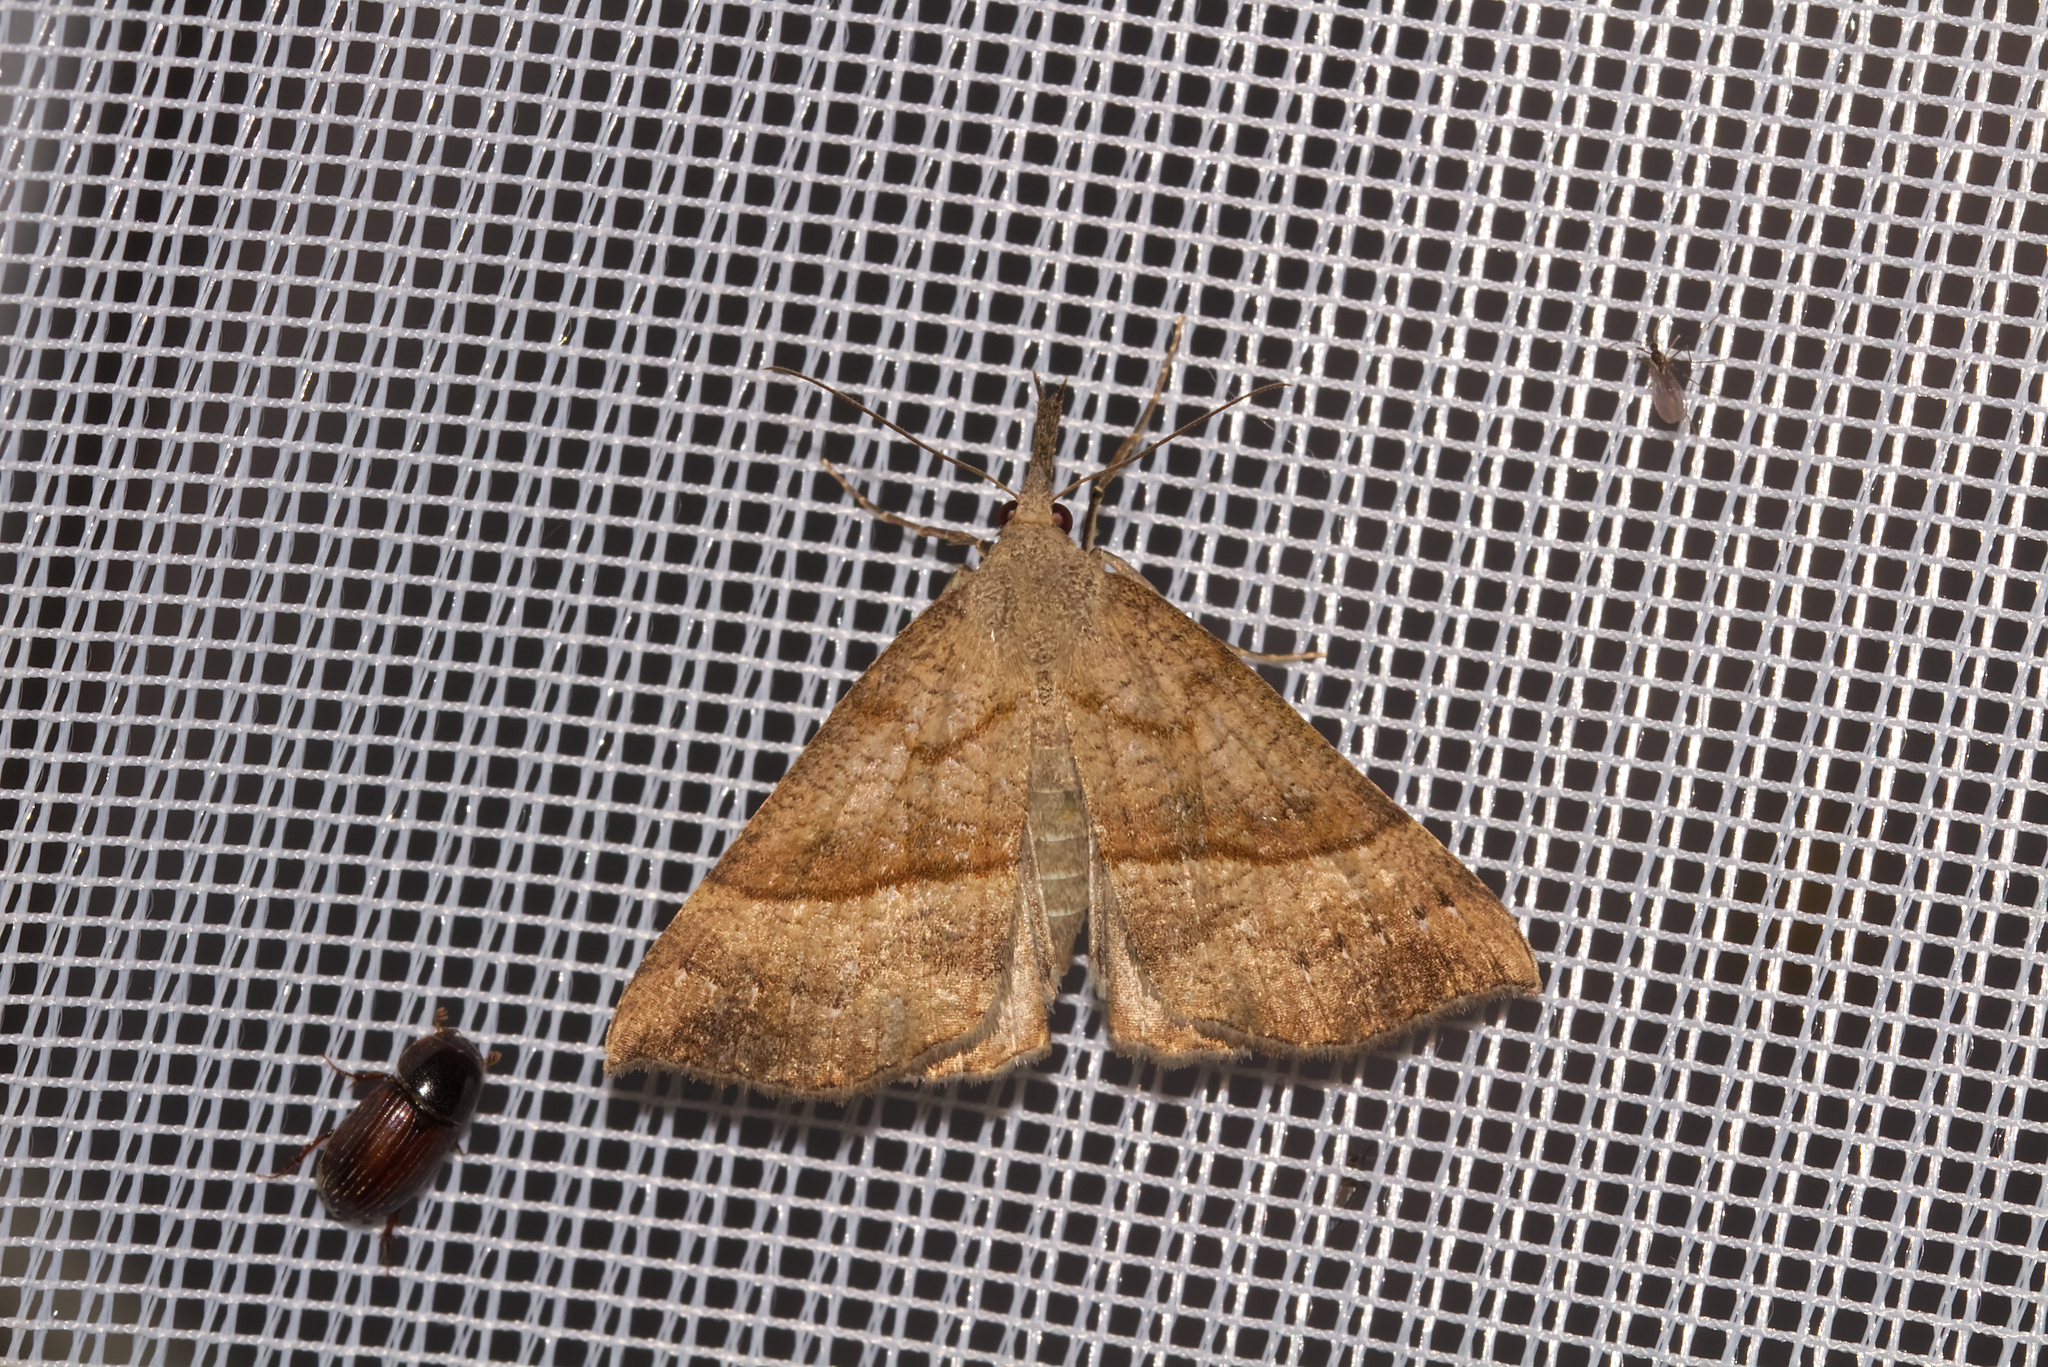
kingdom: Animalia
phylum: Arthropoda
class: Insecta
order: Lepidoptera
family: Erebidae
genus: Hypena
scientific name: Hypena proboscidalis
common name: Snout
